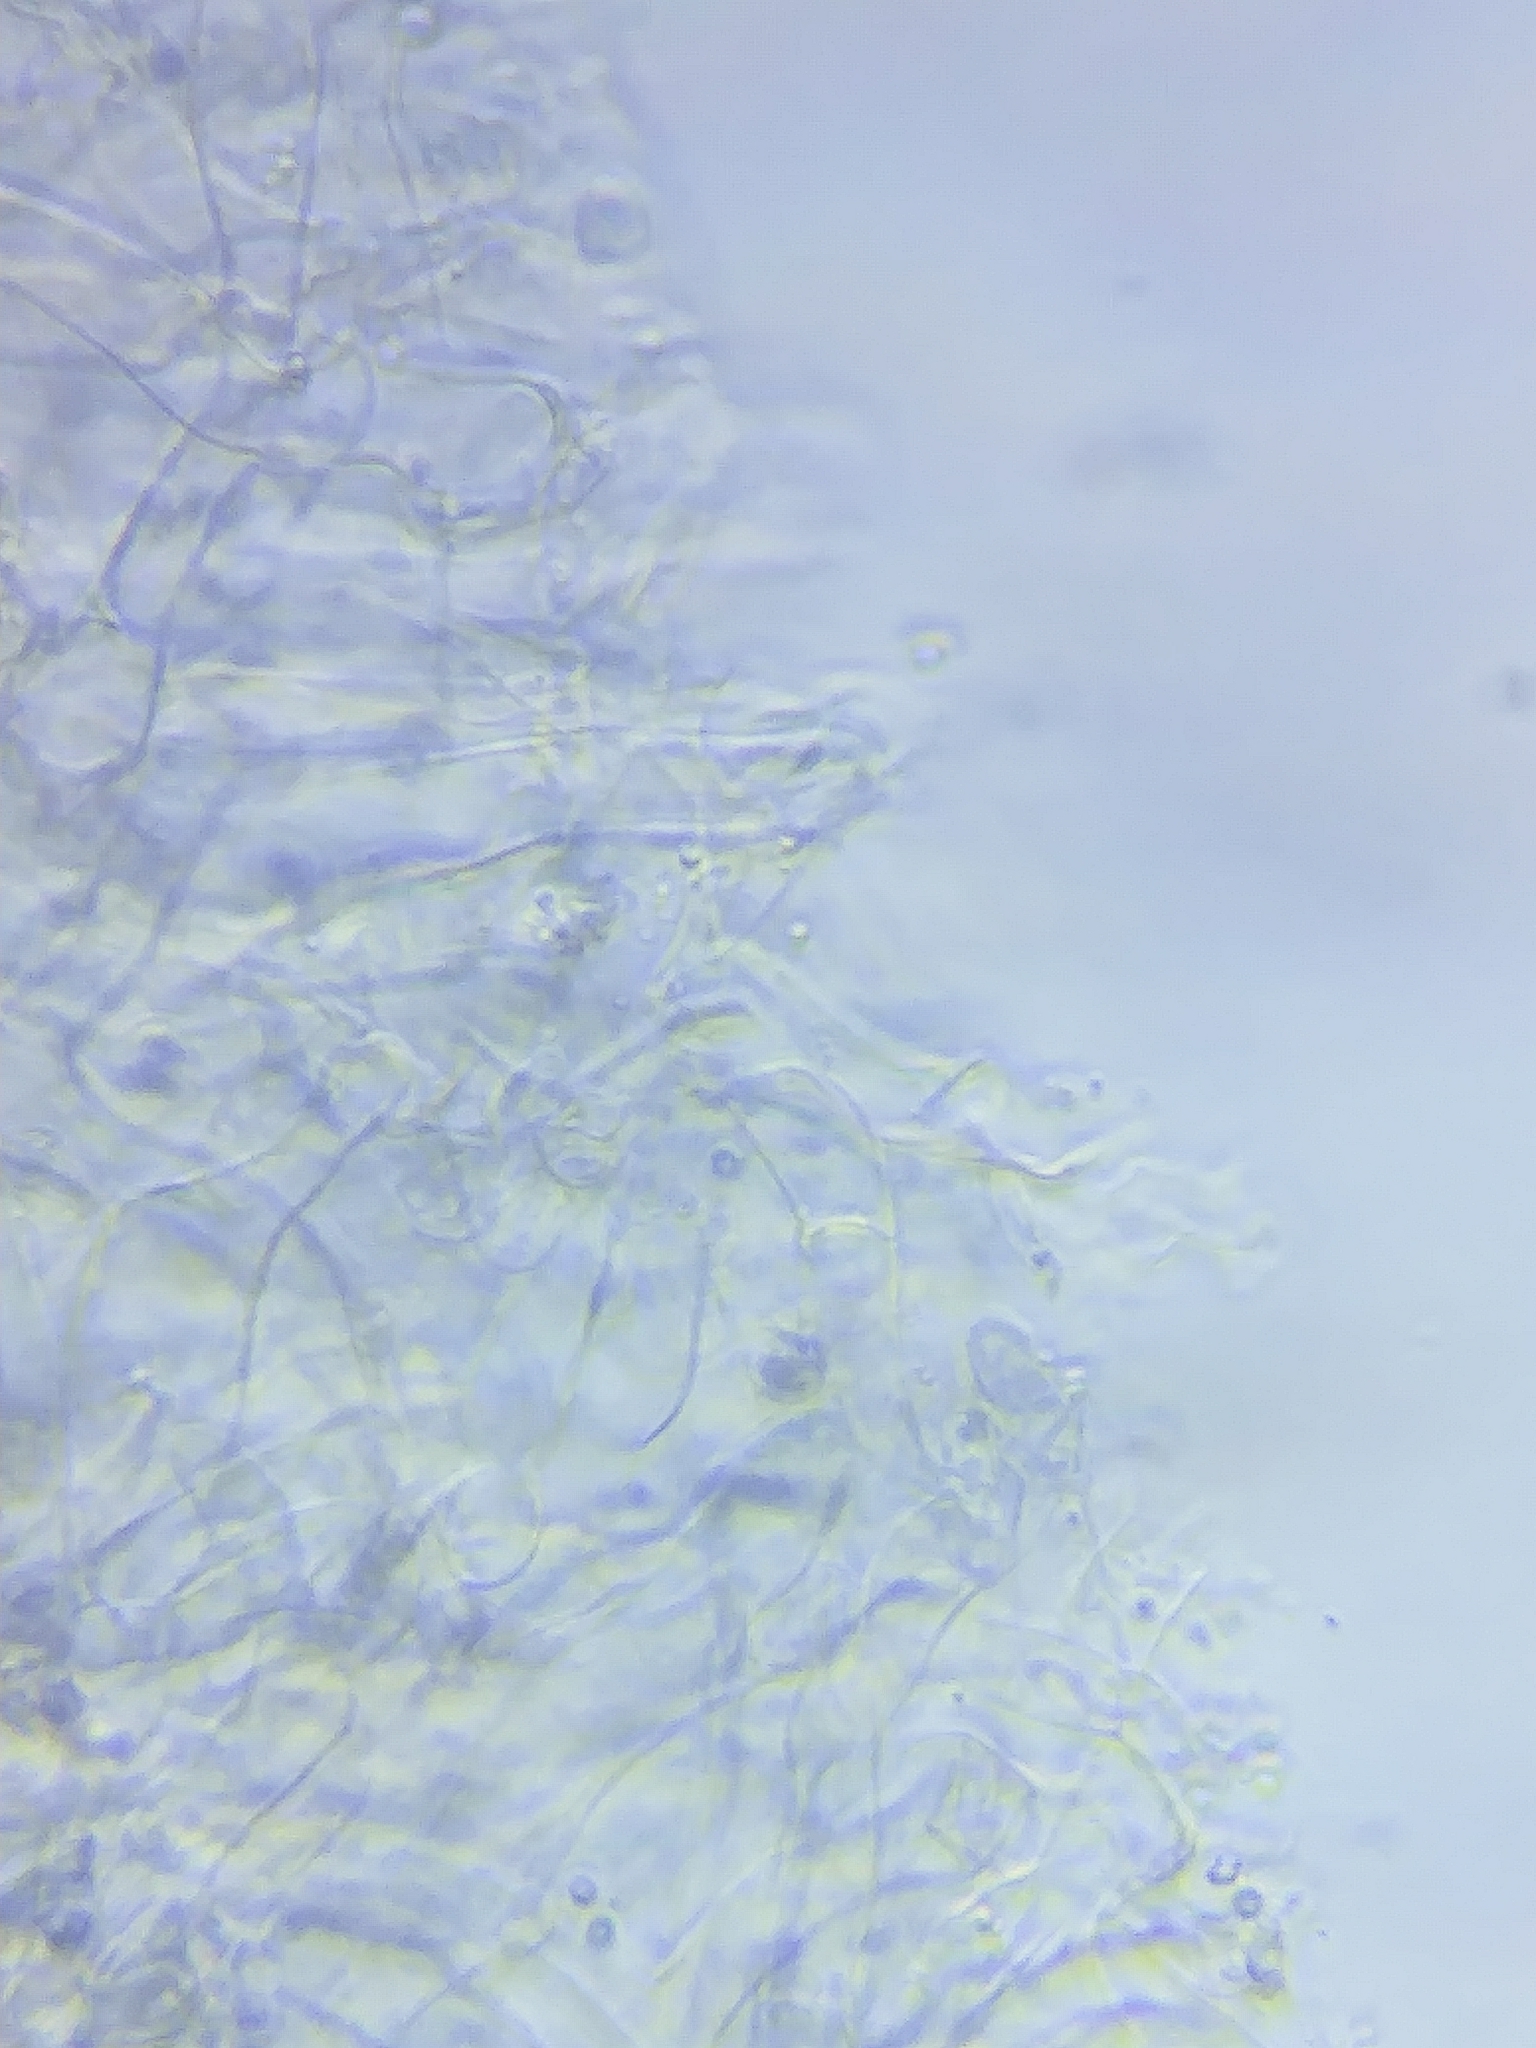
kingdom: Fungi
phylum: Basidiomycota
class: Agaricomycetes
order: Agaricales
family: Omphalotaceae
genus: Gymnopus
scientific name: Gymnopus subsulphureus
